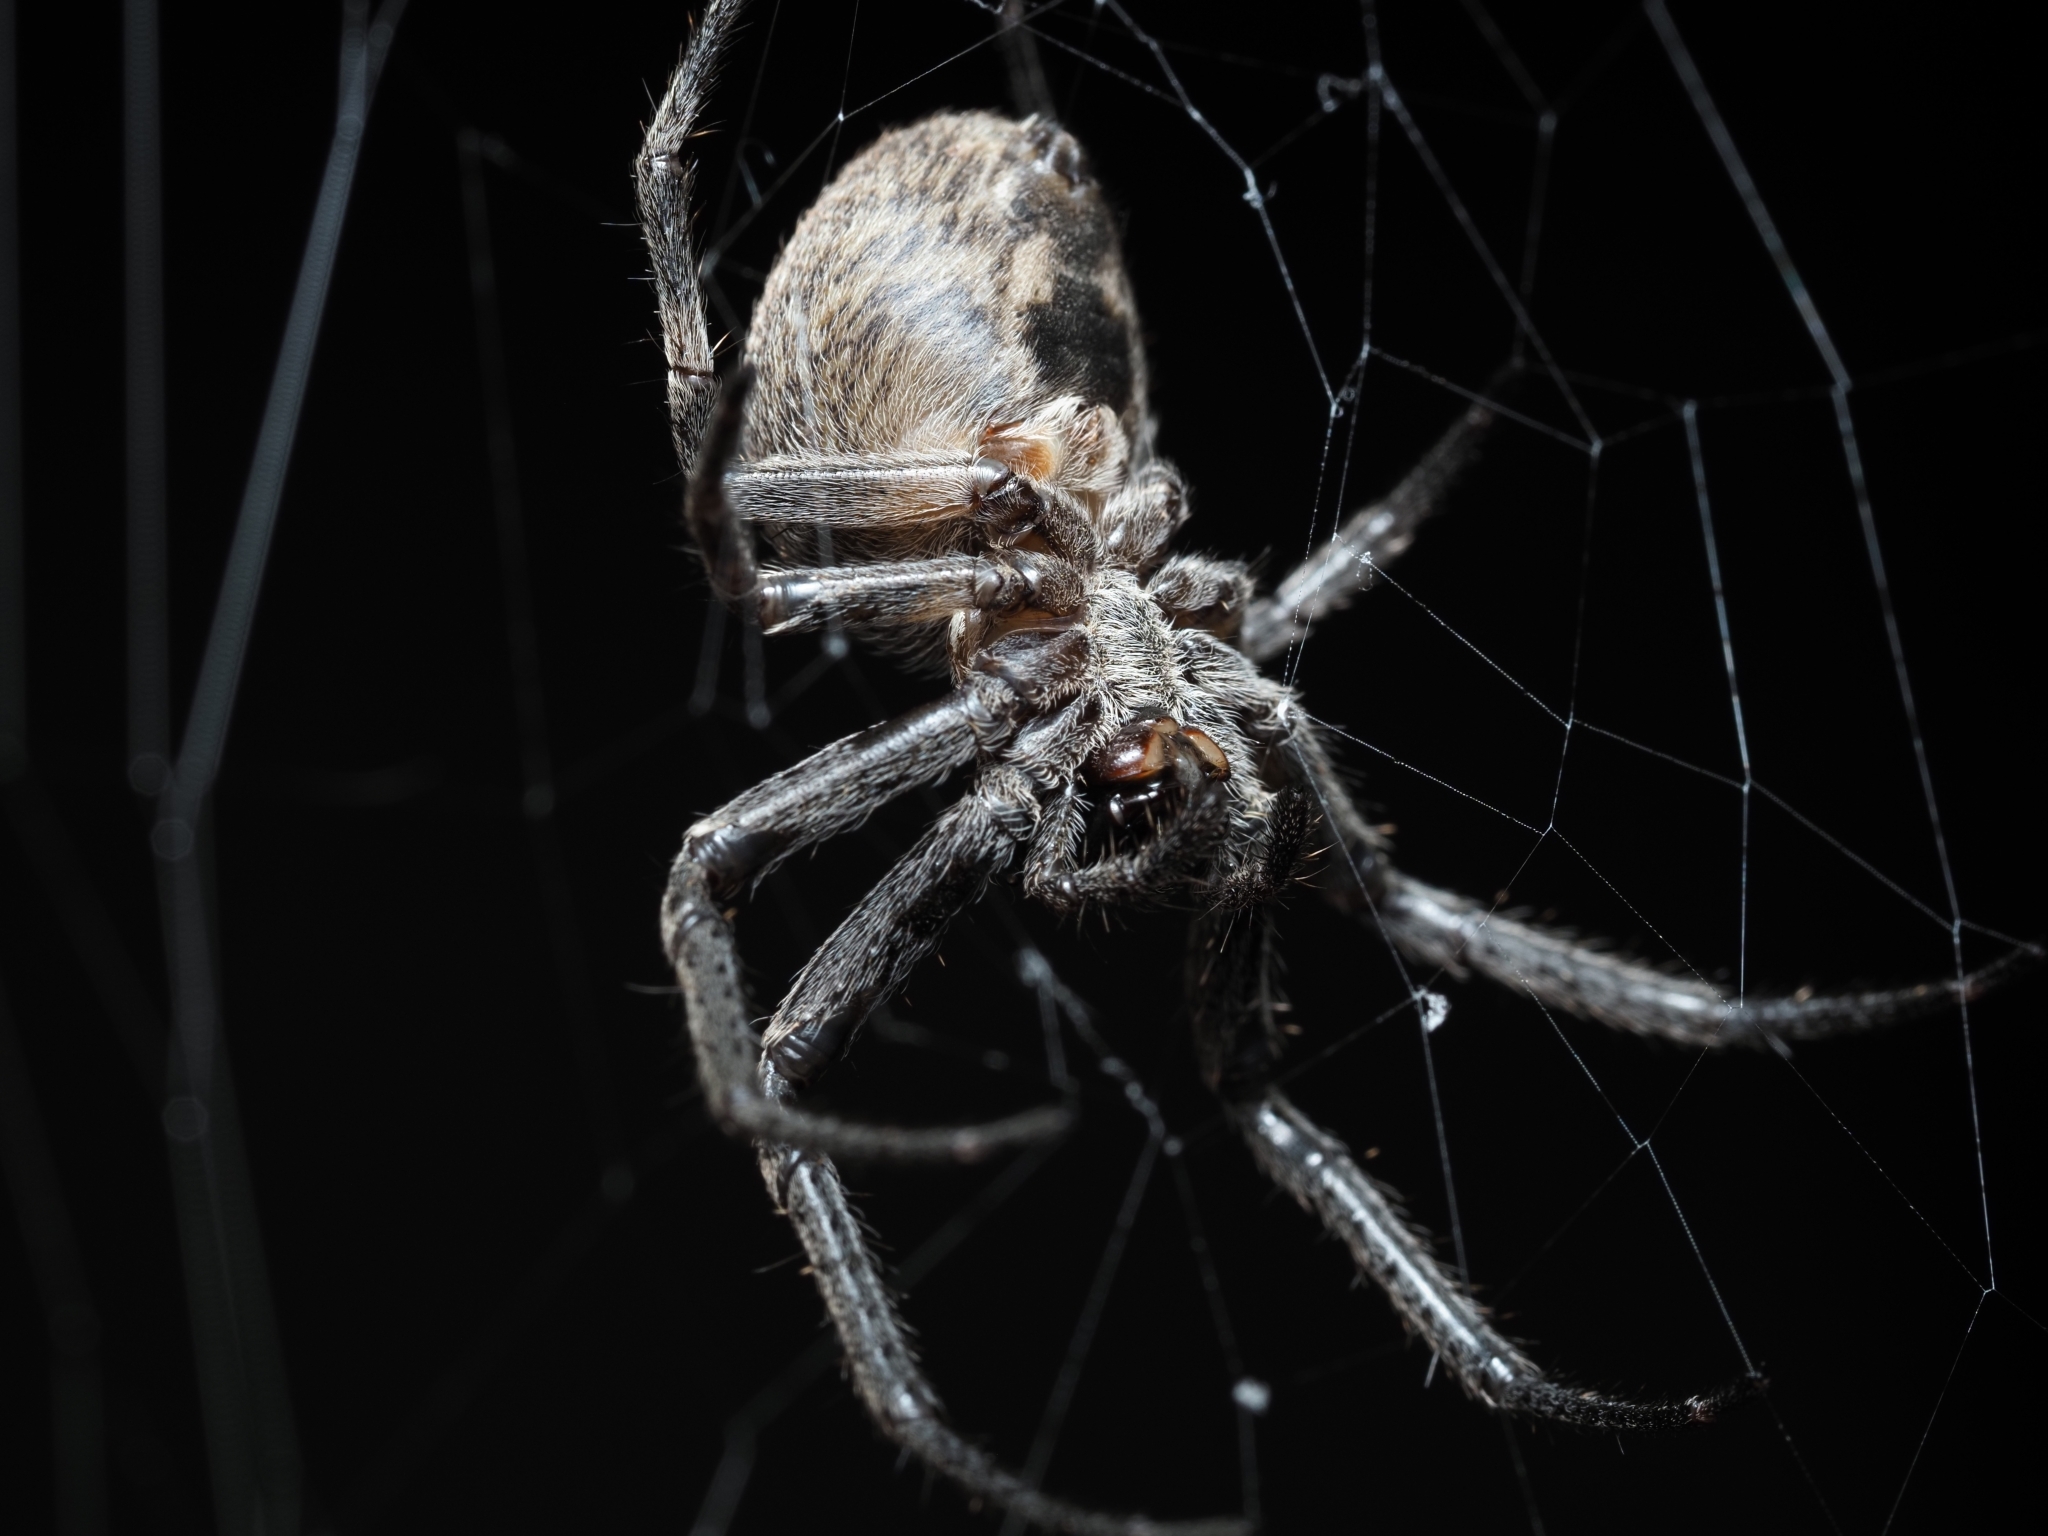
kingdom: Animalia
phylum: Arthropoda
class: Arachnida
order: Araneae
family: Araneidae
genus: Larinioides
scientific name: Larinioides ixobolus
